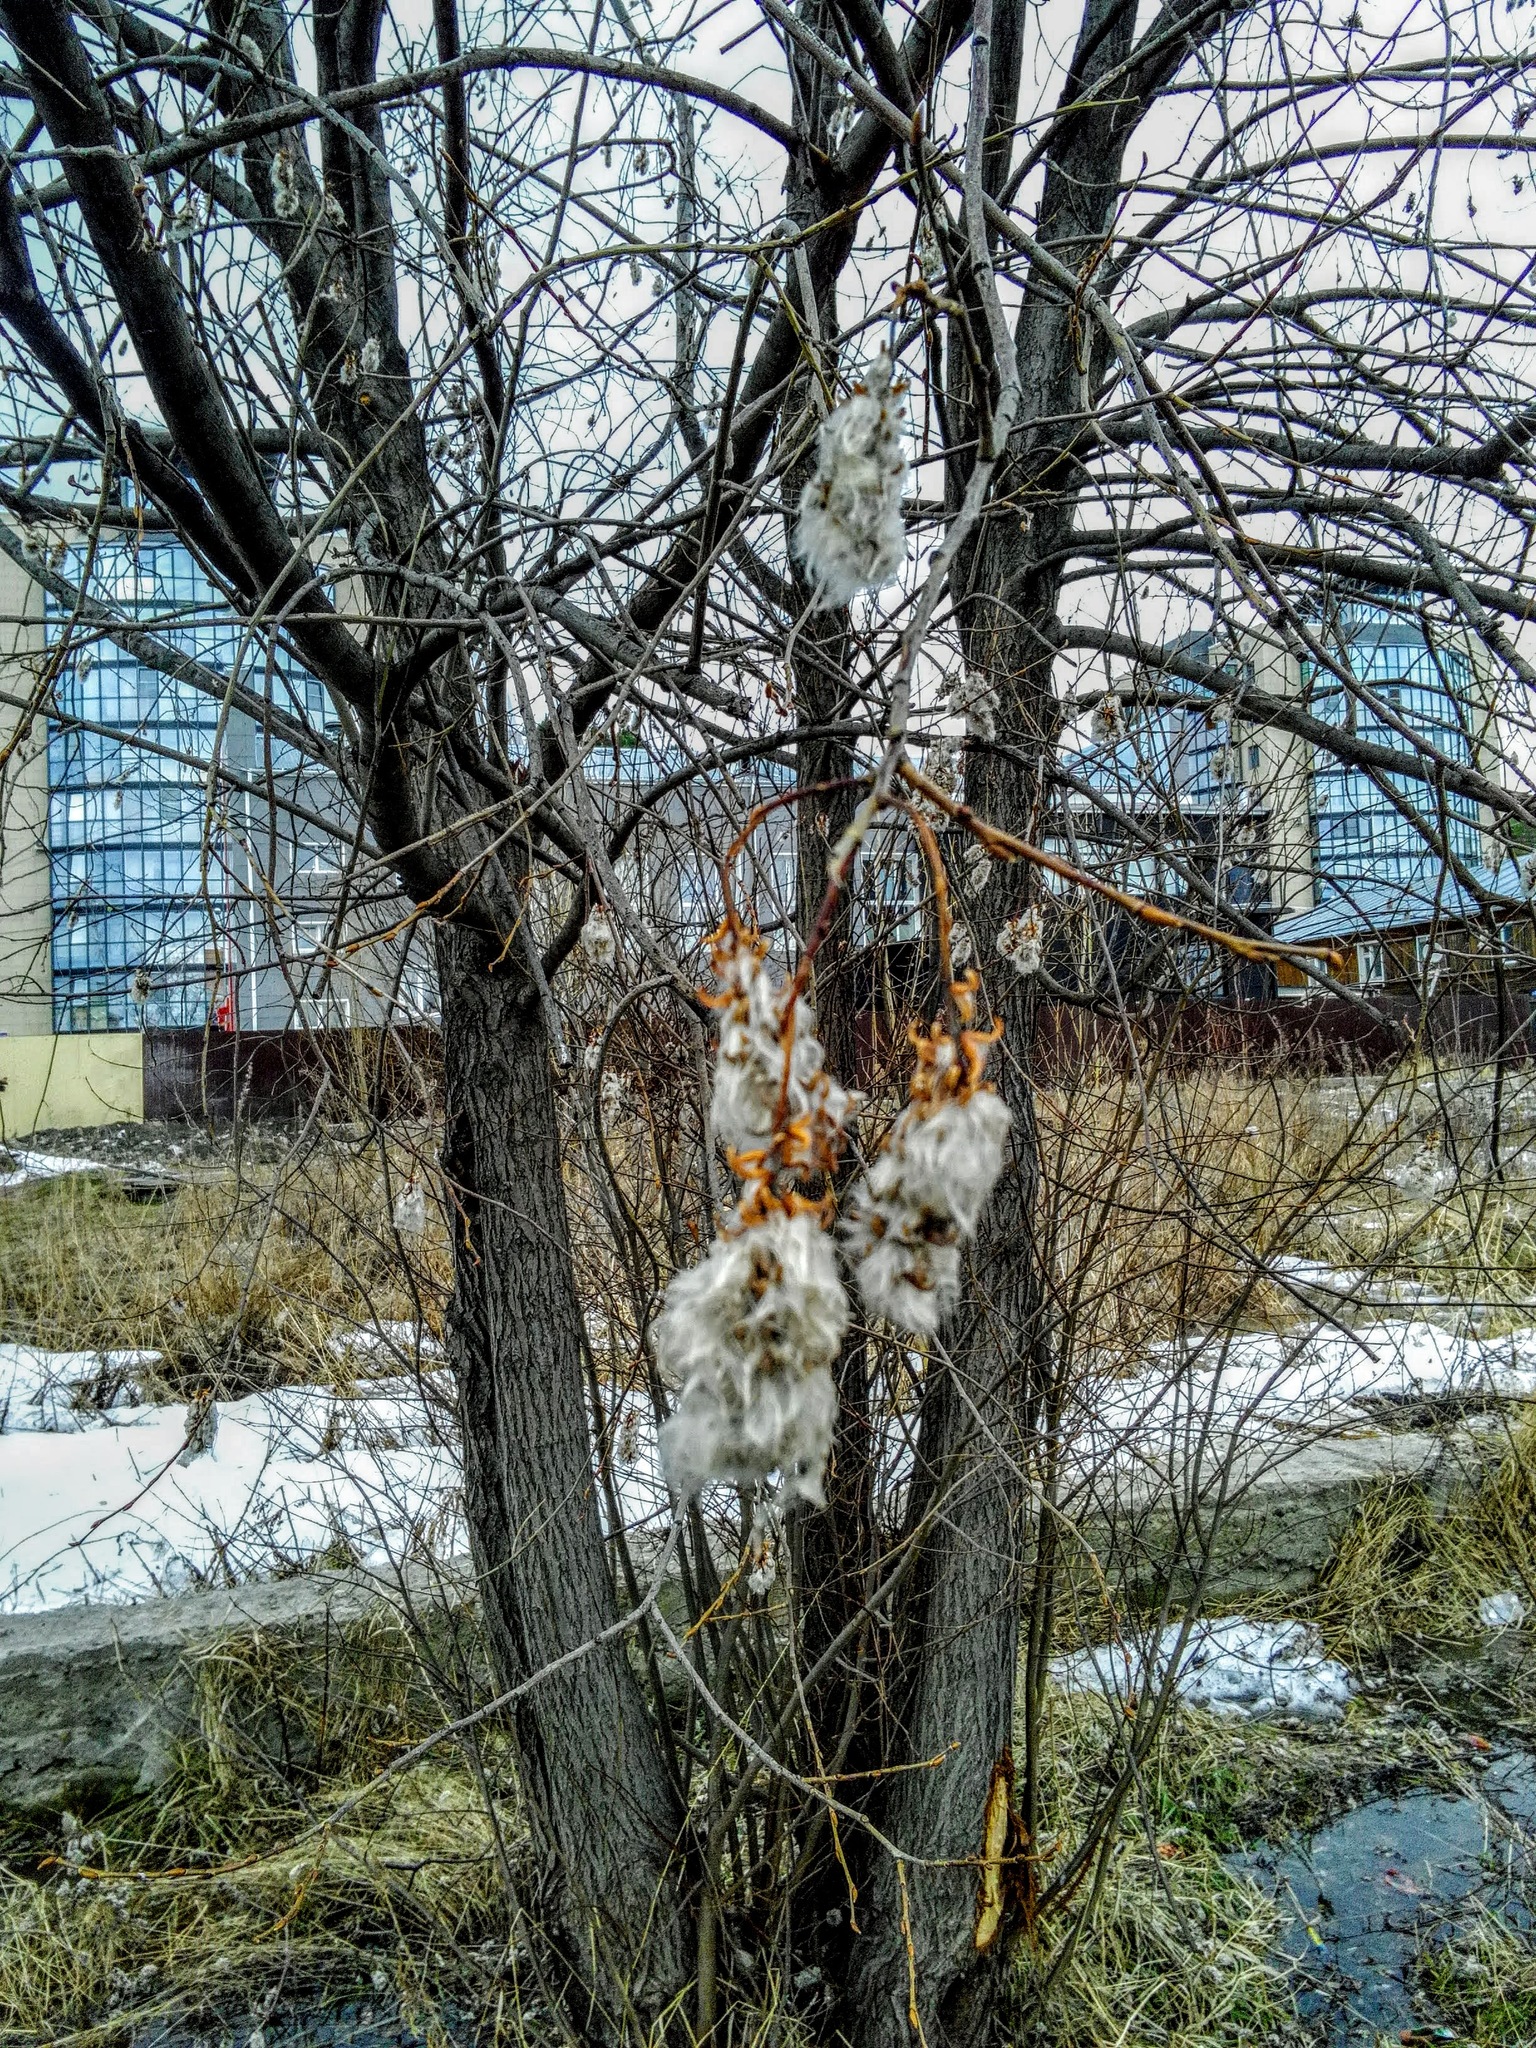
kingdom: Plantae
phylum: Tracheophyta
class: Magnoliopsida
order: Malpighiales
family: Salicaceae
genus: Salix
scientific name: Salix pentandra
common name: Bay willow
